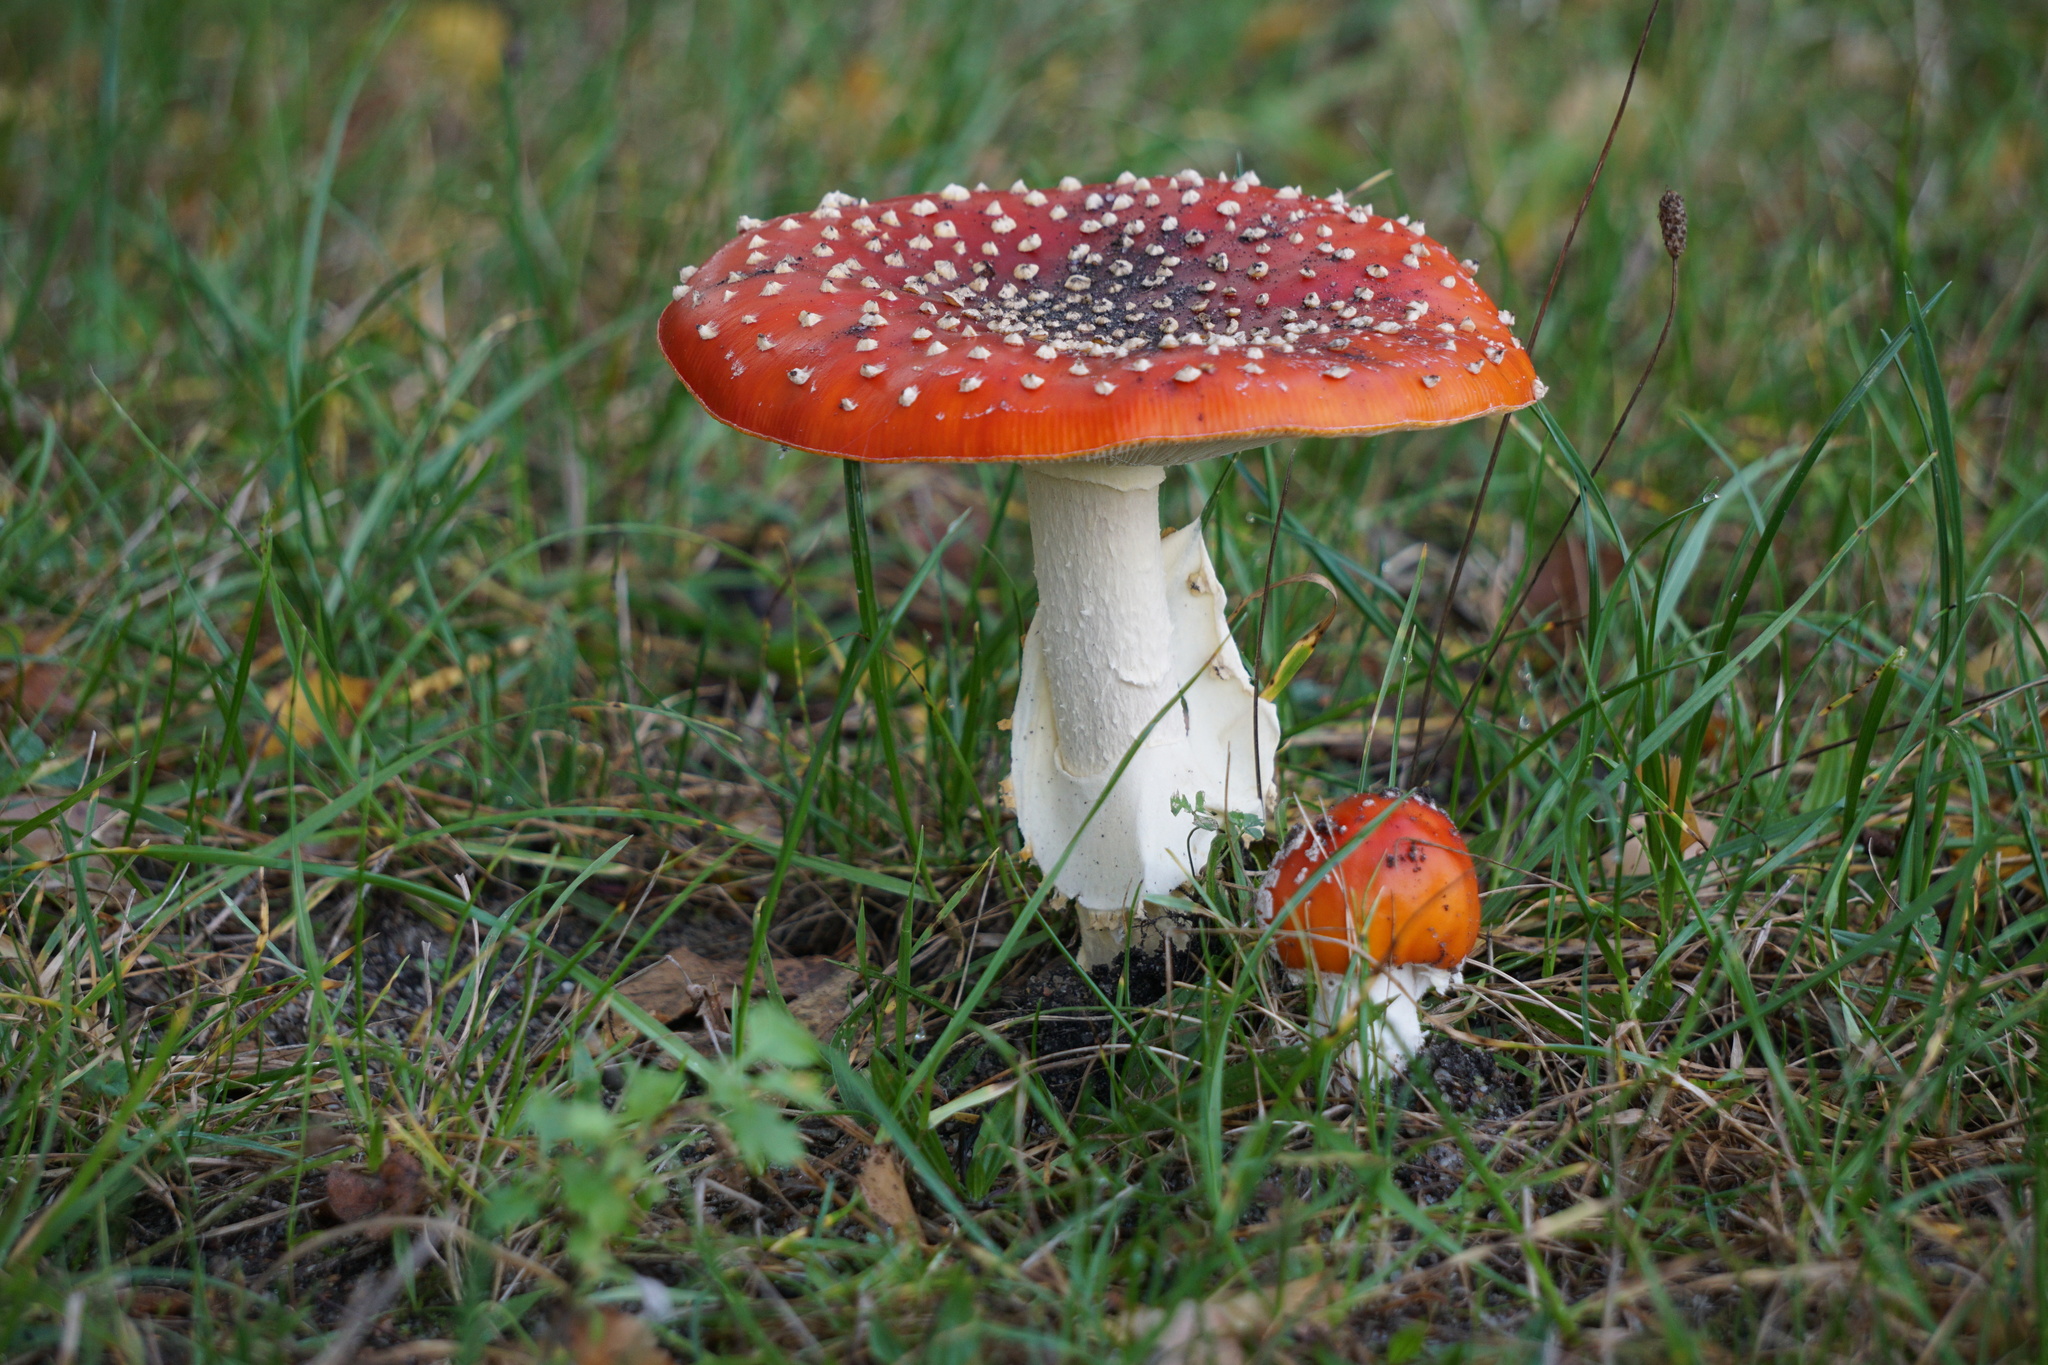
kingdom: Fungi
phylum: Basidiomycota
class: Agaricomycetes
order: Agaricales
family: Amanitaceae
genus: Amanita
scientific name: Amanita muscaria
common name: Fly agaric
